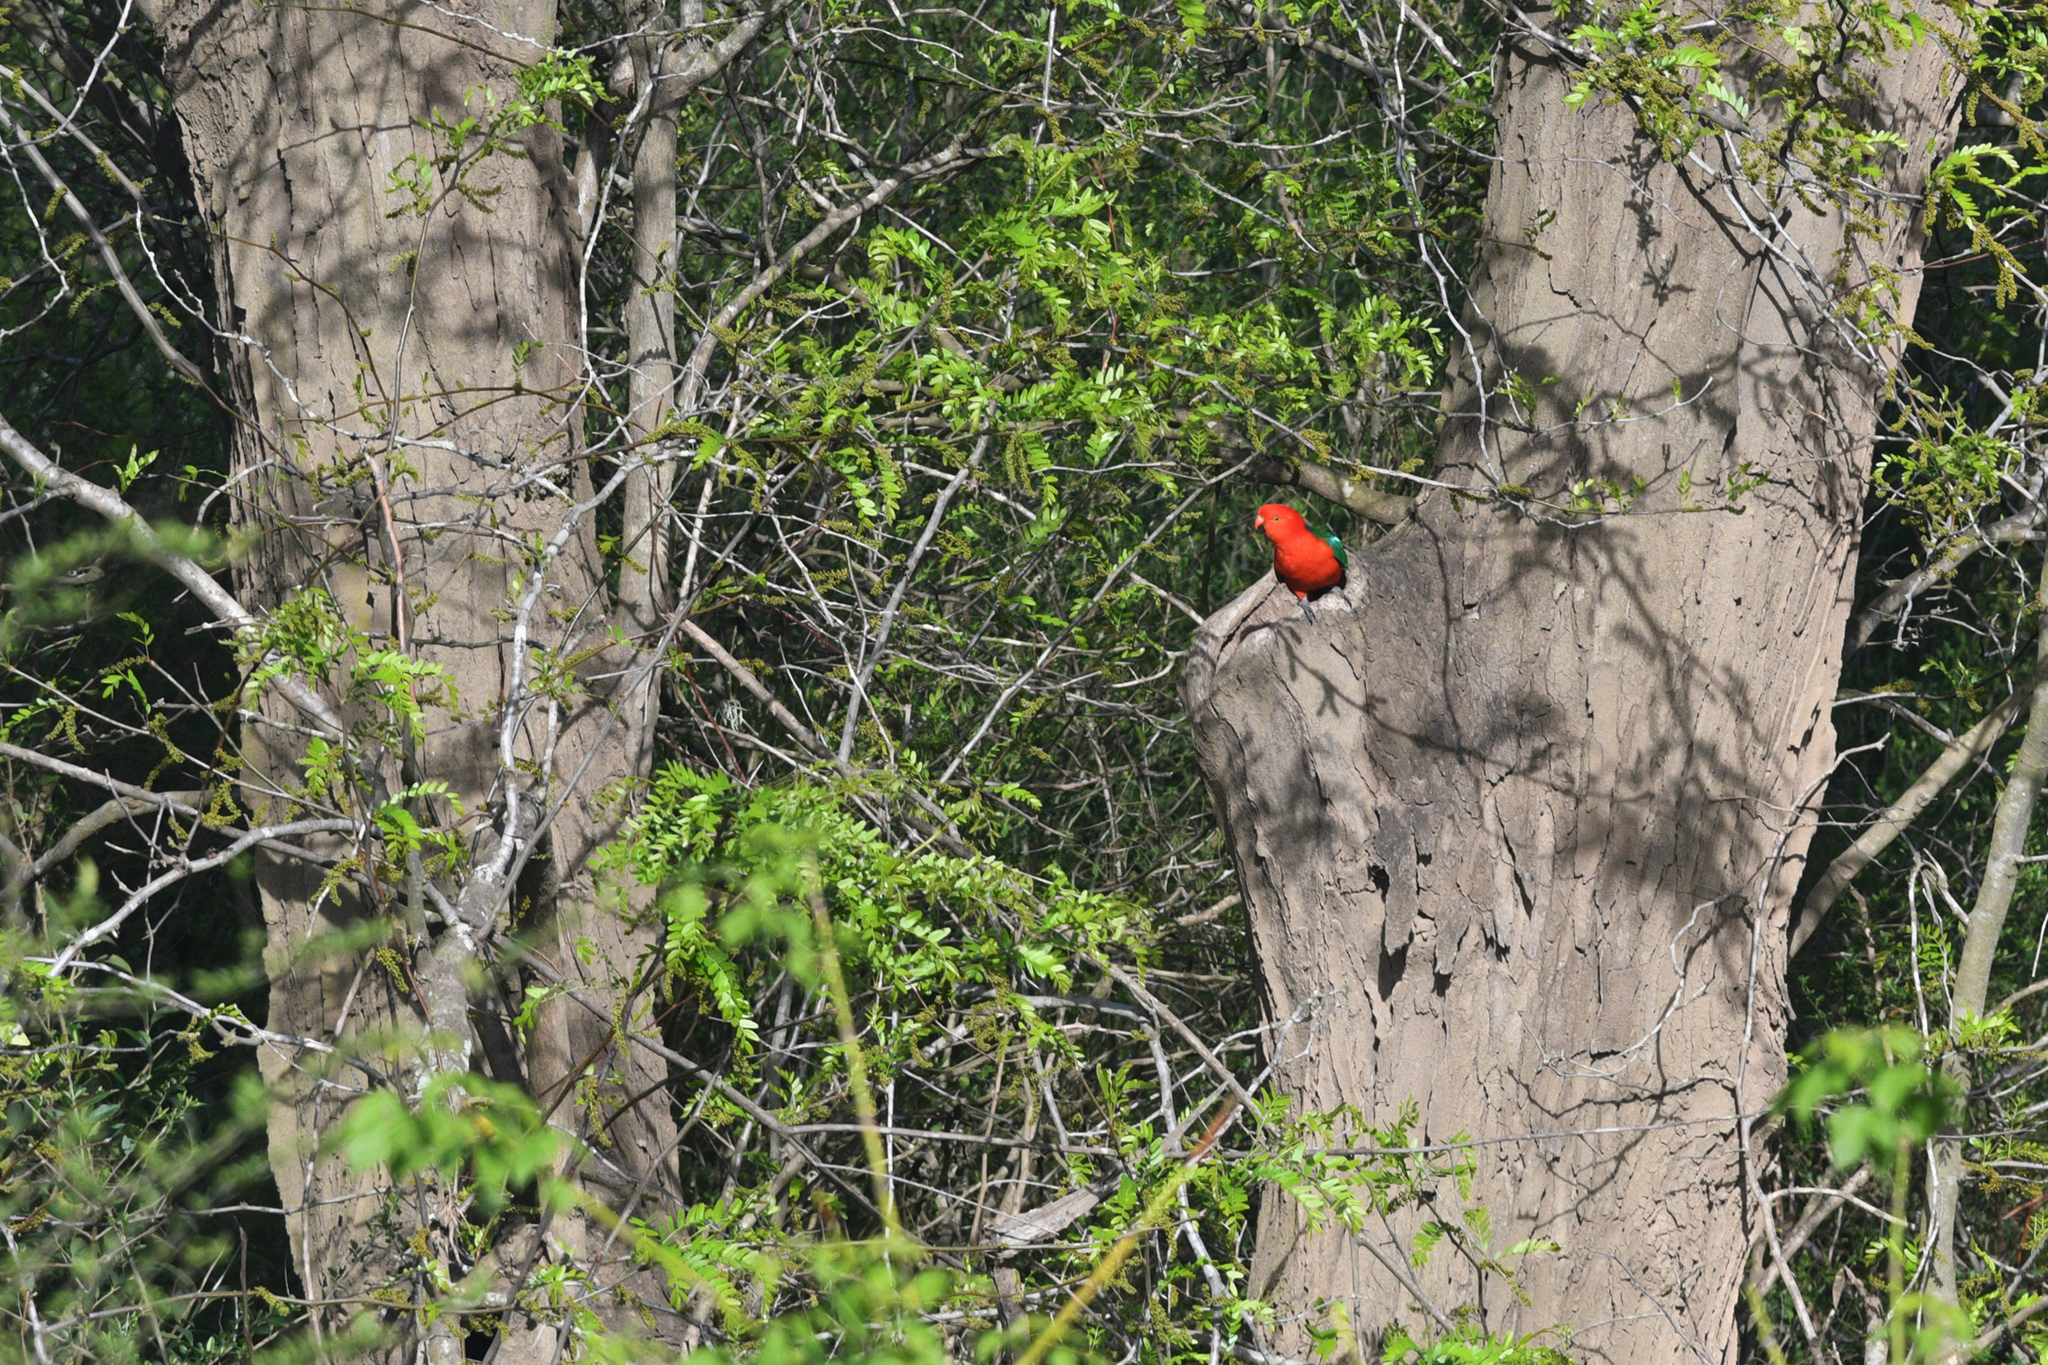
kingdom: Animalia
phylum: Chordata
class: Aves
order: Psittaciformes
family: Psittacidae
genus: Alisterus
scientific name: Alisterus scapularis
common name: Australian king parrot
